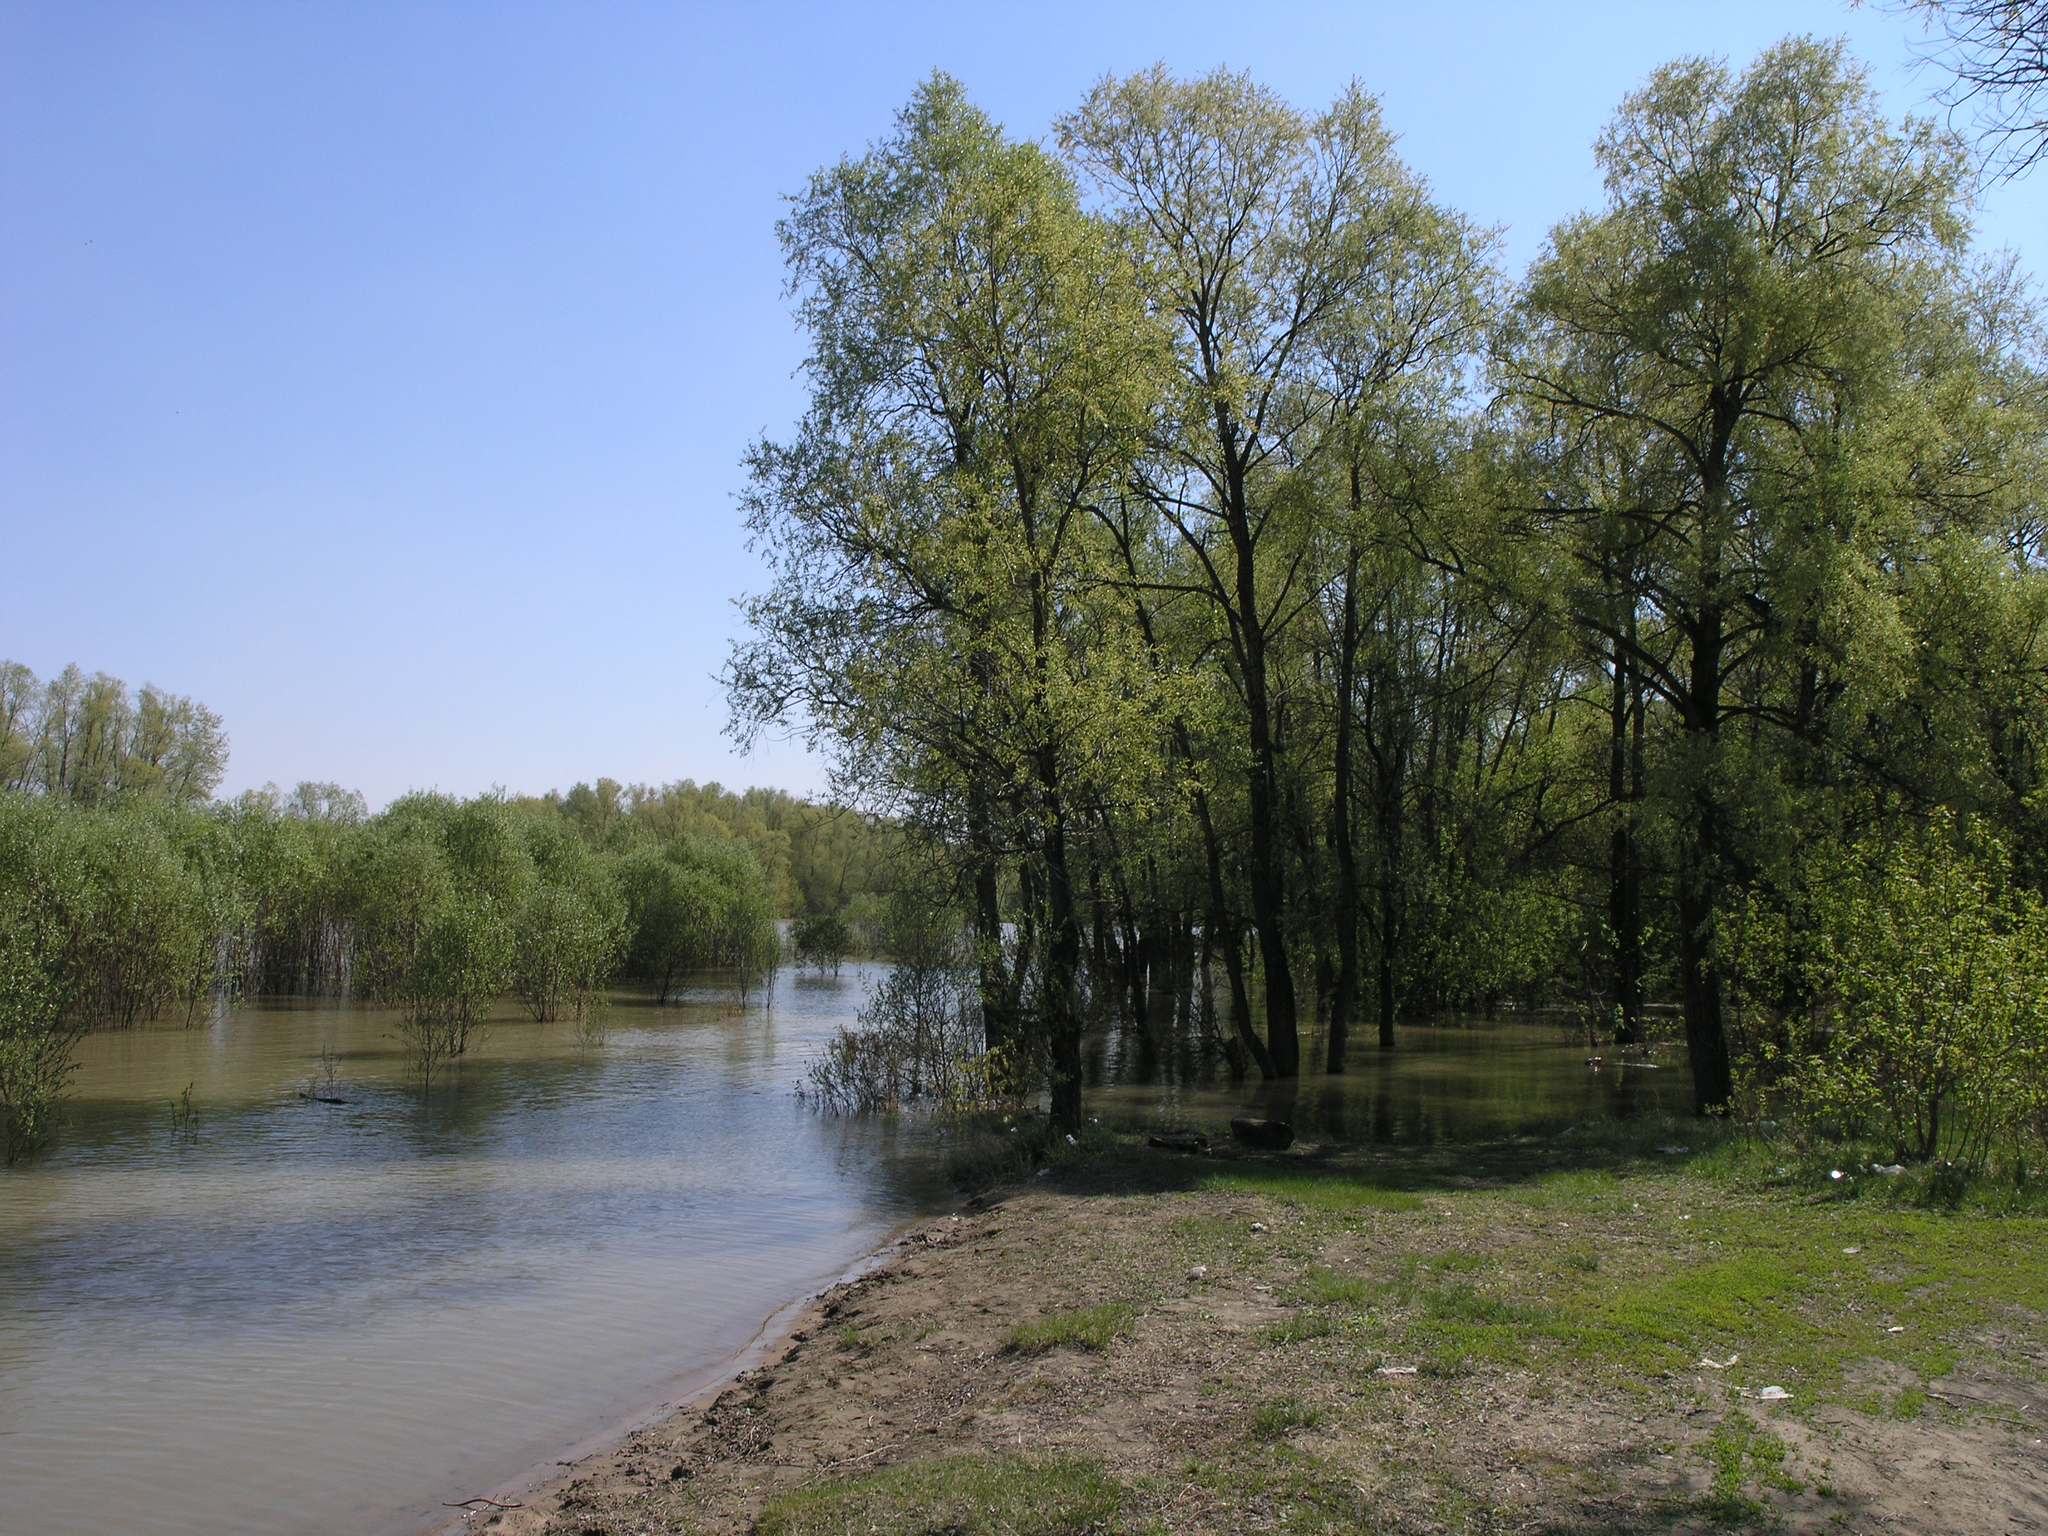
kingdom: Plantae
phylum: Tracheophyta
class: Magnoliopsida
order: Malpighiales
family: Salicaceae
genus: Salix
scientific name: Salix alba
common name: White willow
